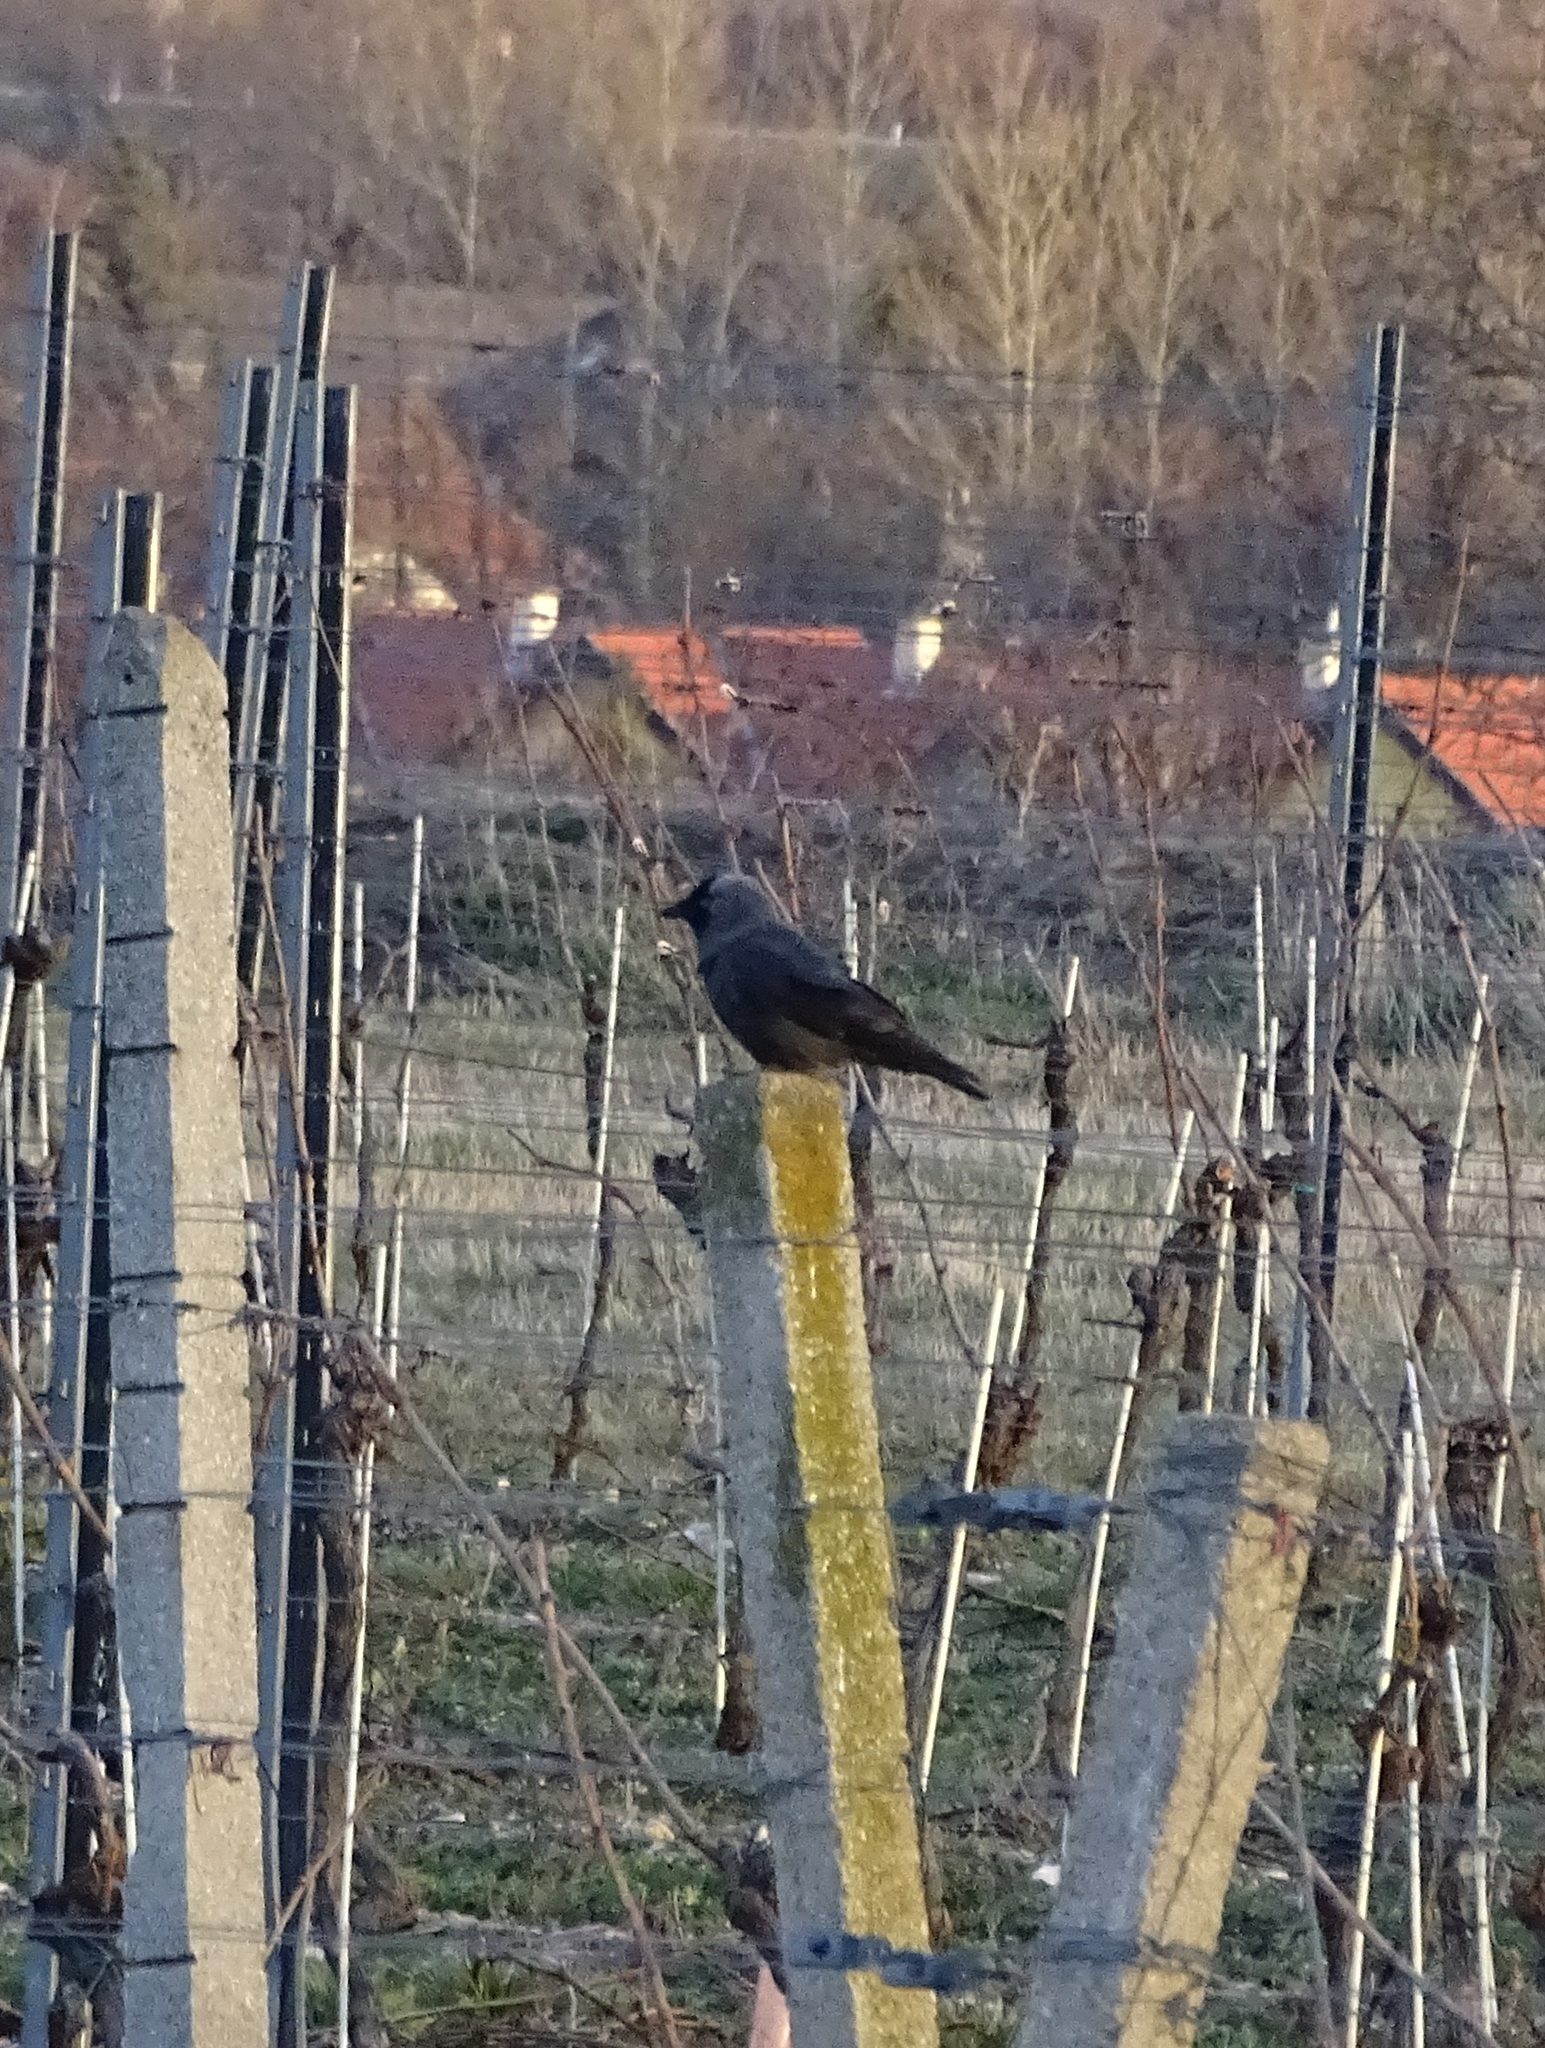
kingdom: Animalia
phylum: Chordata
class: Aves
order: Passeriformes
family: Corvidae
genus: Coloeus
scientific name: Coloeus monedula
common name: Western jackdaw
